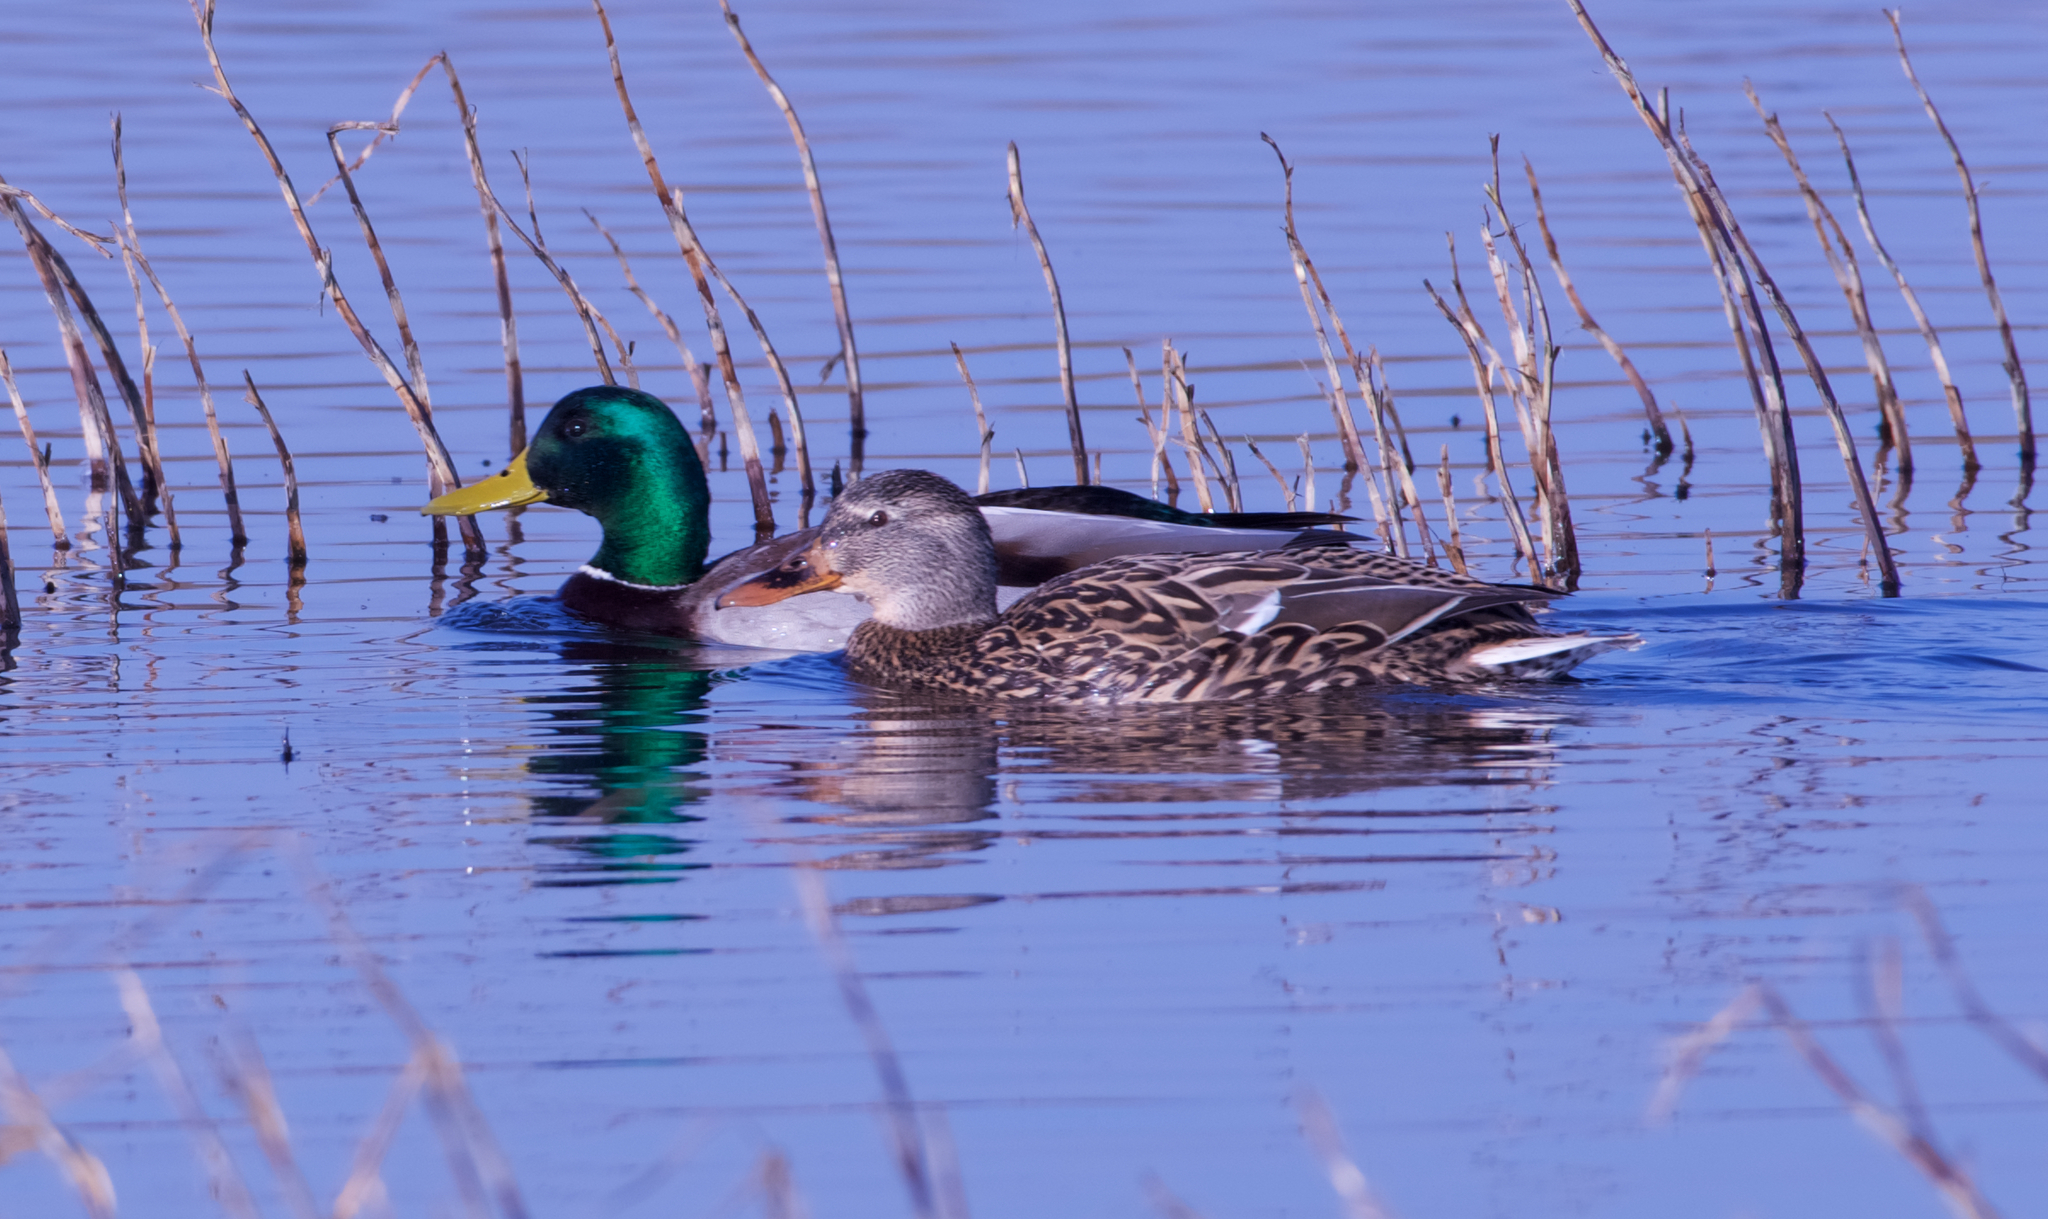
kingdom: Animalia
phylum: Chordata
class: Aves
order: Anseriformes
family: Anatidae
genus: Anas
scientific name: Anas platyrhynchos
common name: Mallard
